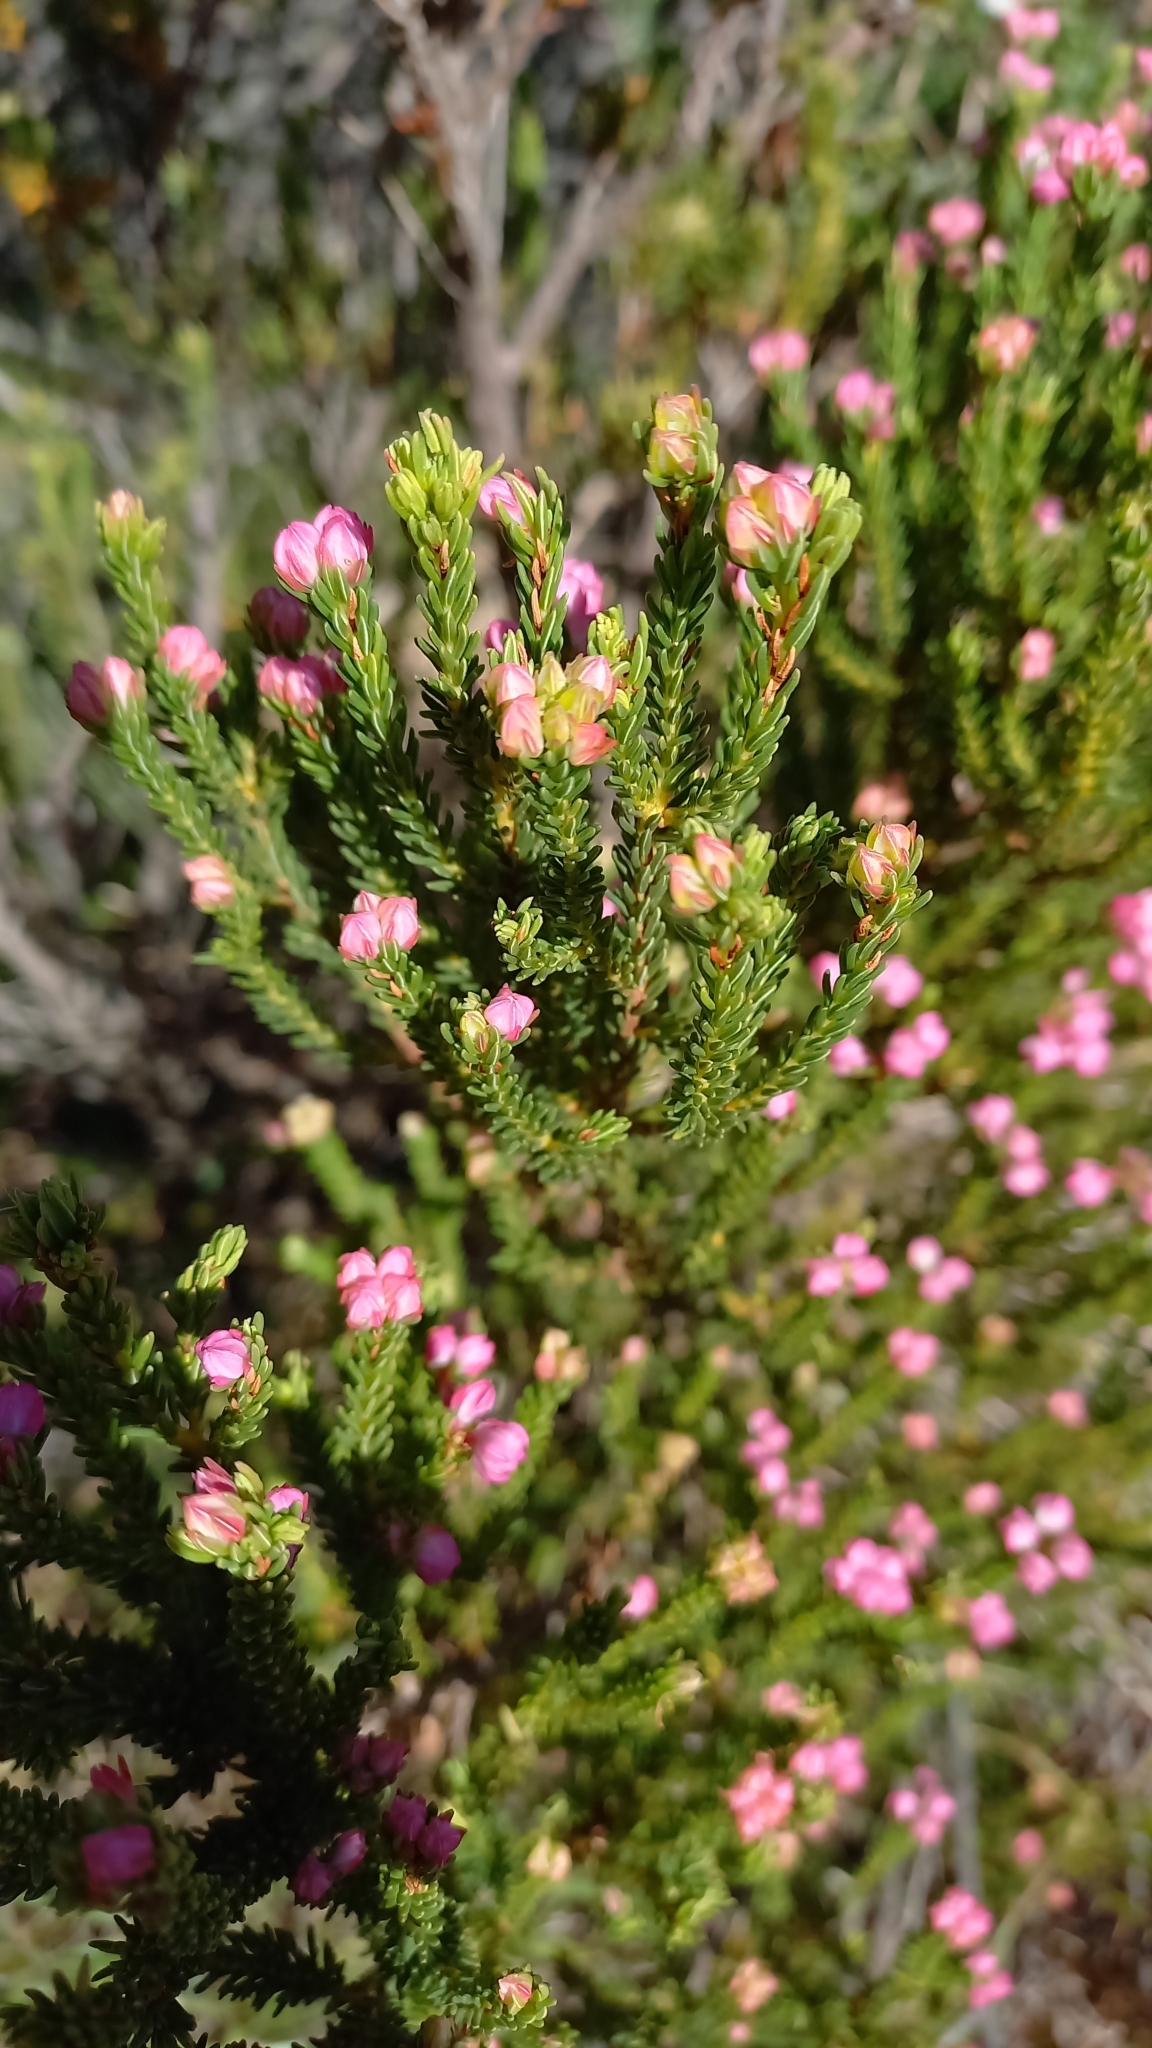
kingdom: Plantae
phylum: Tracheophyta
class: Magnoliopsida
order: Ericales
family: Ericaceae
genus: Erica
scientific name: Erica baccans
